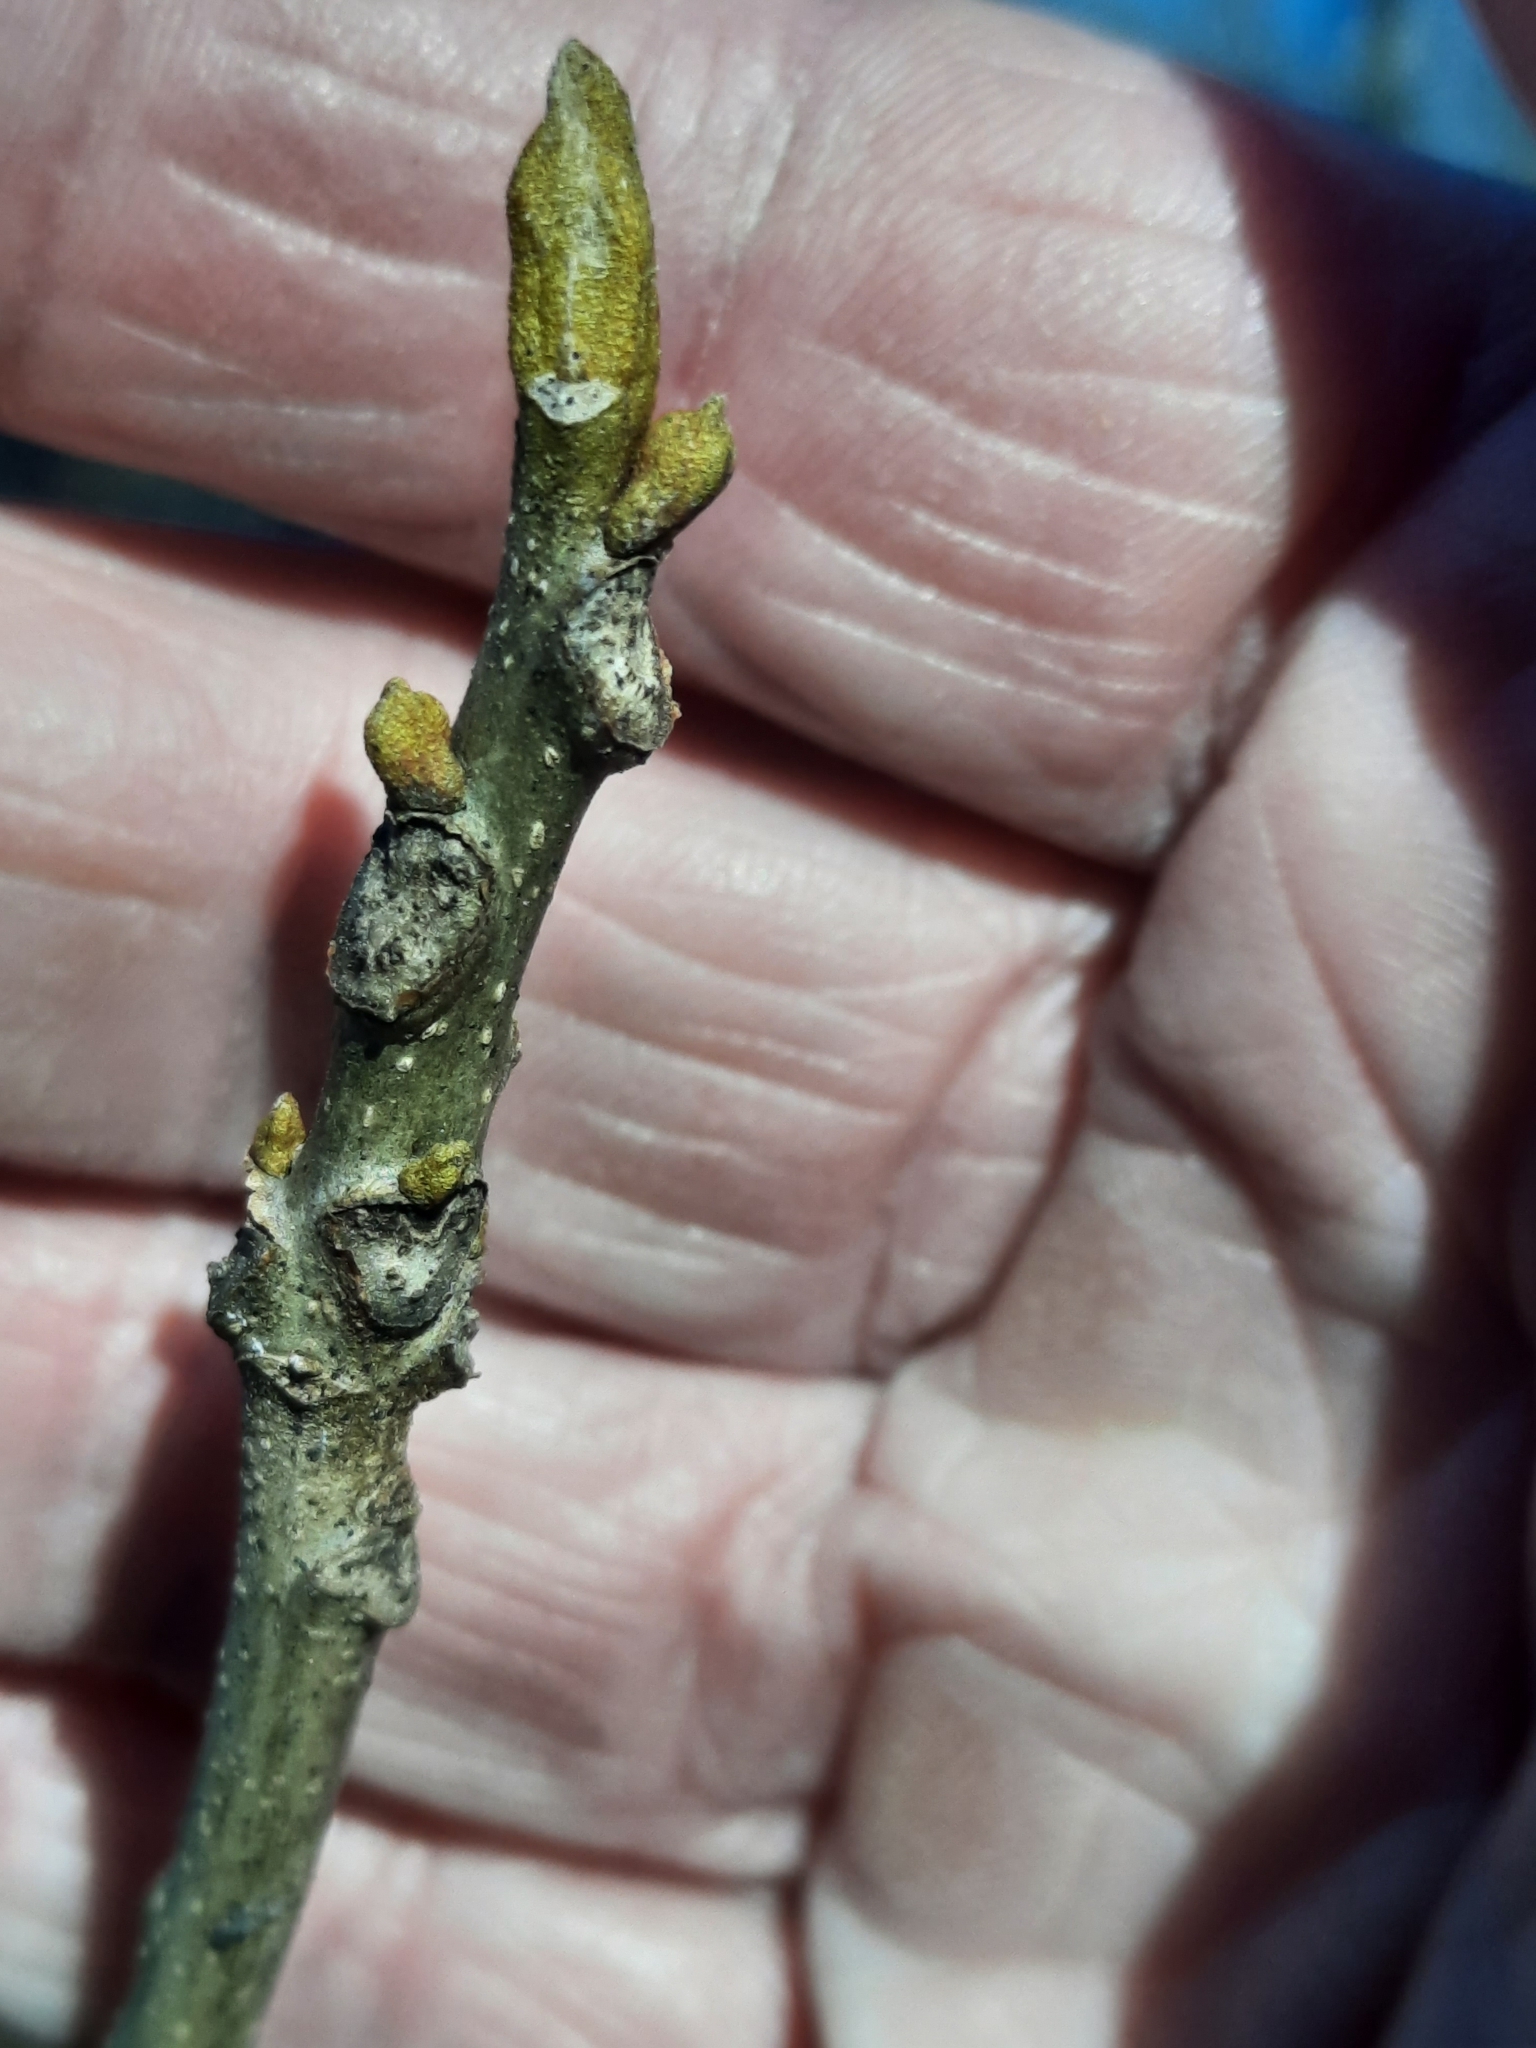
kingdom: Plantae
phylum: Tracheophyta
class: Magnoliopsida
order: Fagales
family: Juglandaceae
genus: Carya
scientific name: Carya cordiformis
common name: Bitternut hickory
